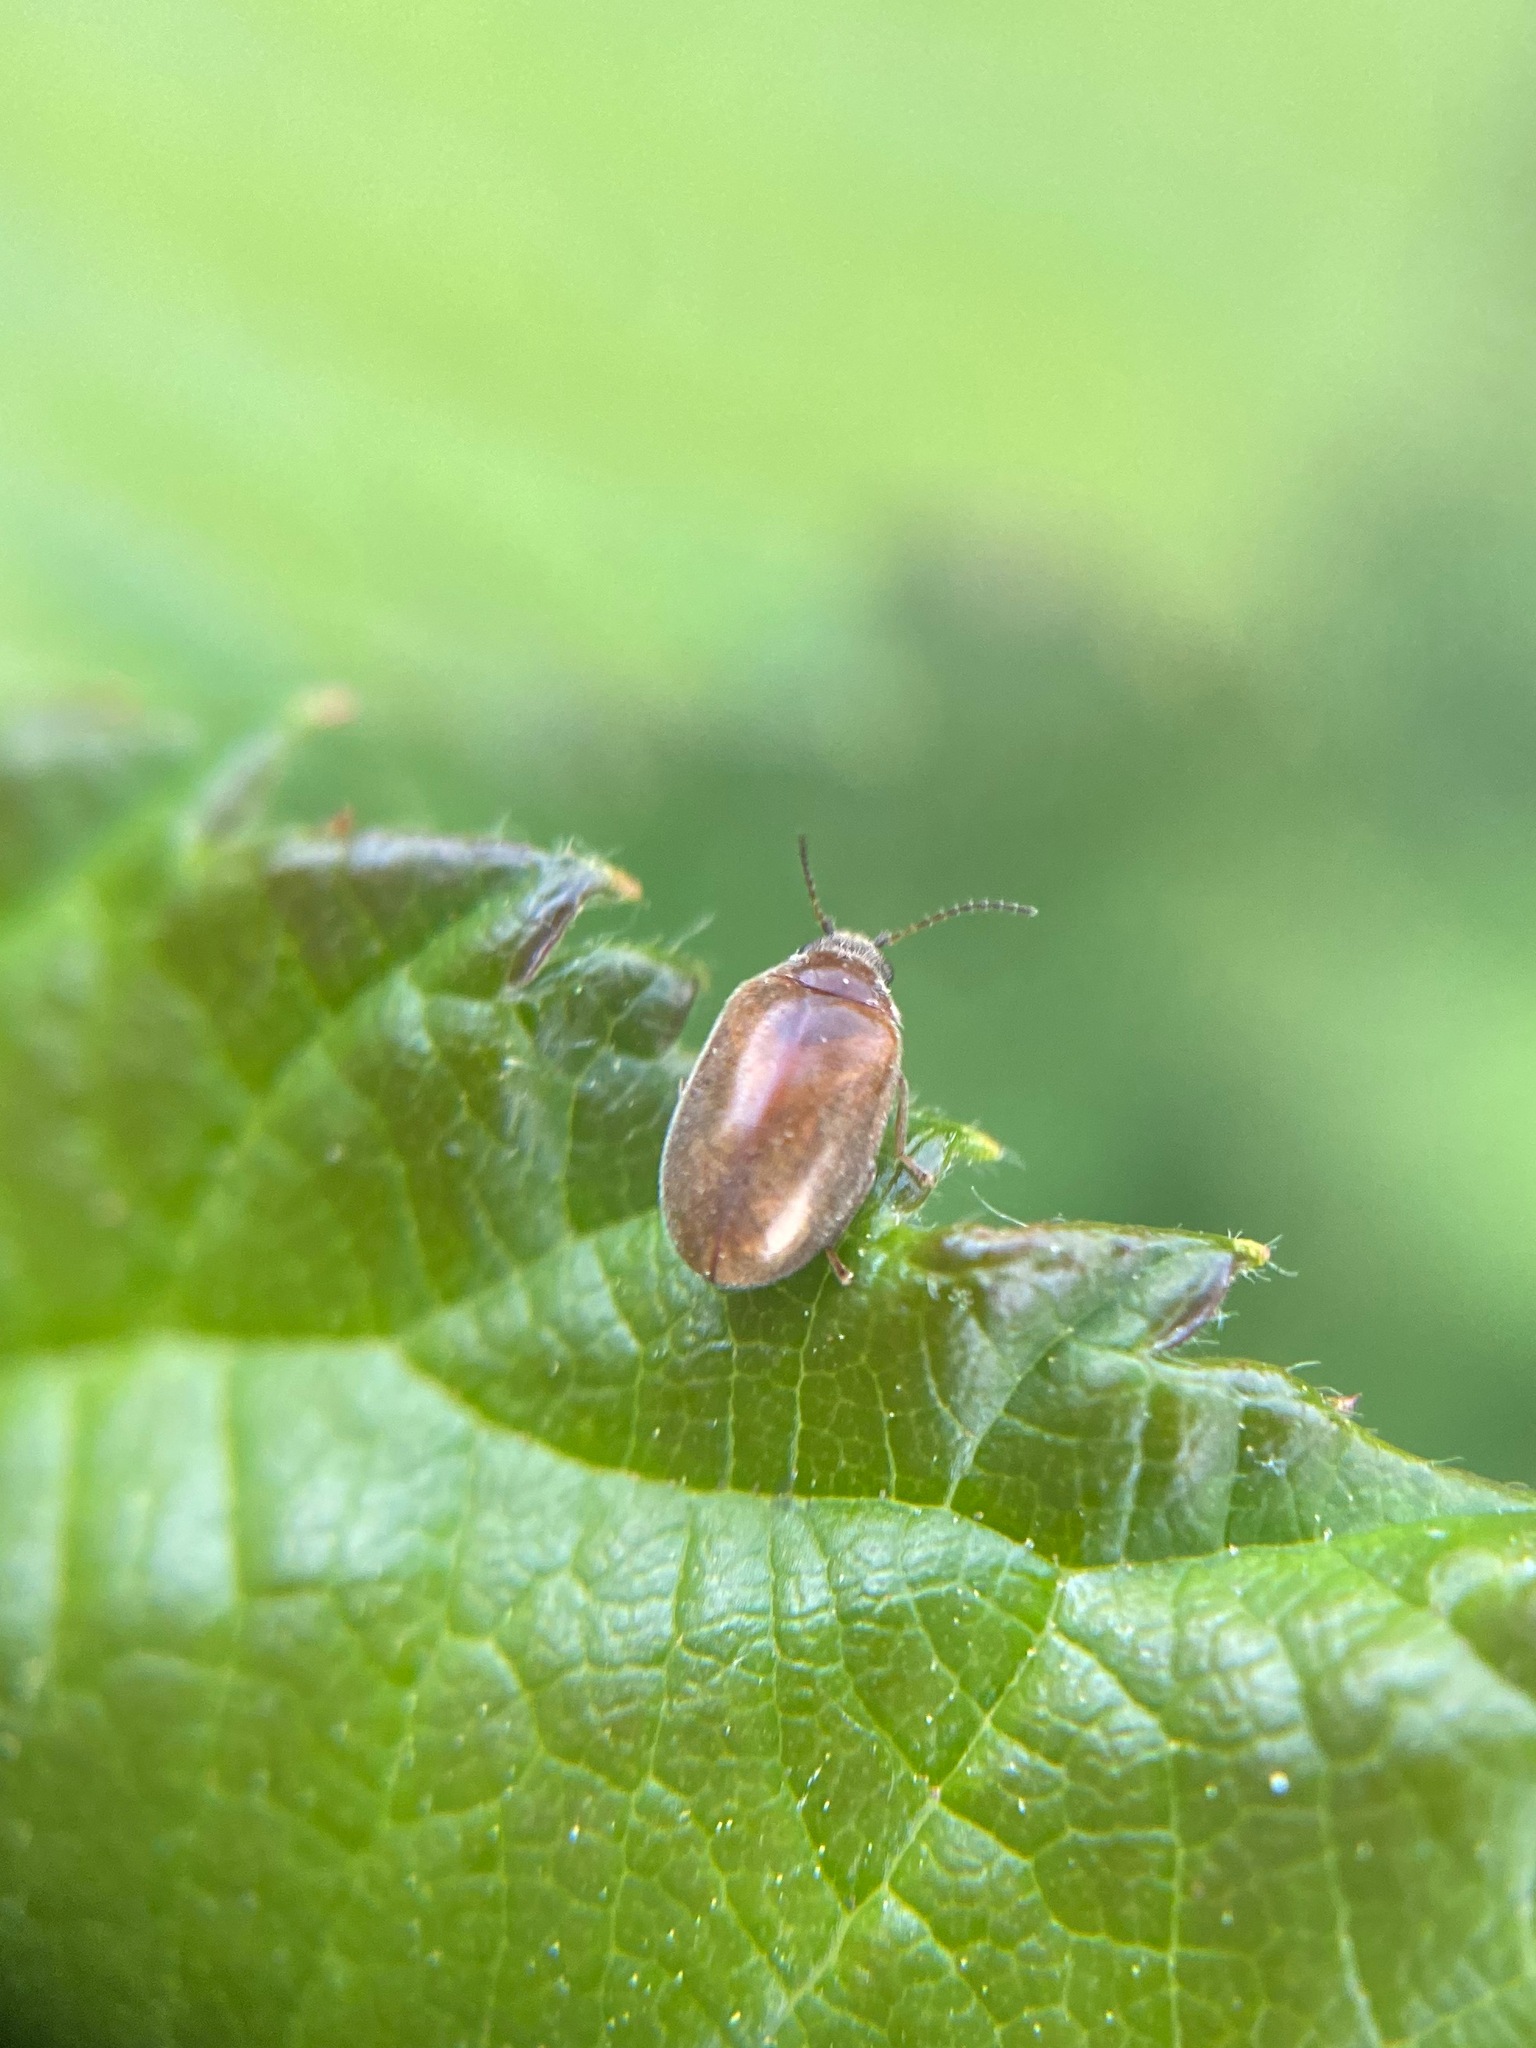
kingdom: Animalia
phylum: Arthropoda
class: Insecta
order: Coleoptera
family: Scirtidae
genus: Contacyphon
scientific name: Contacyphon
